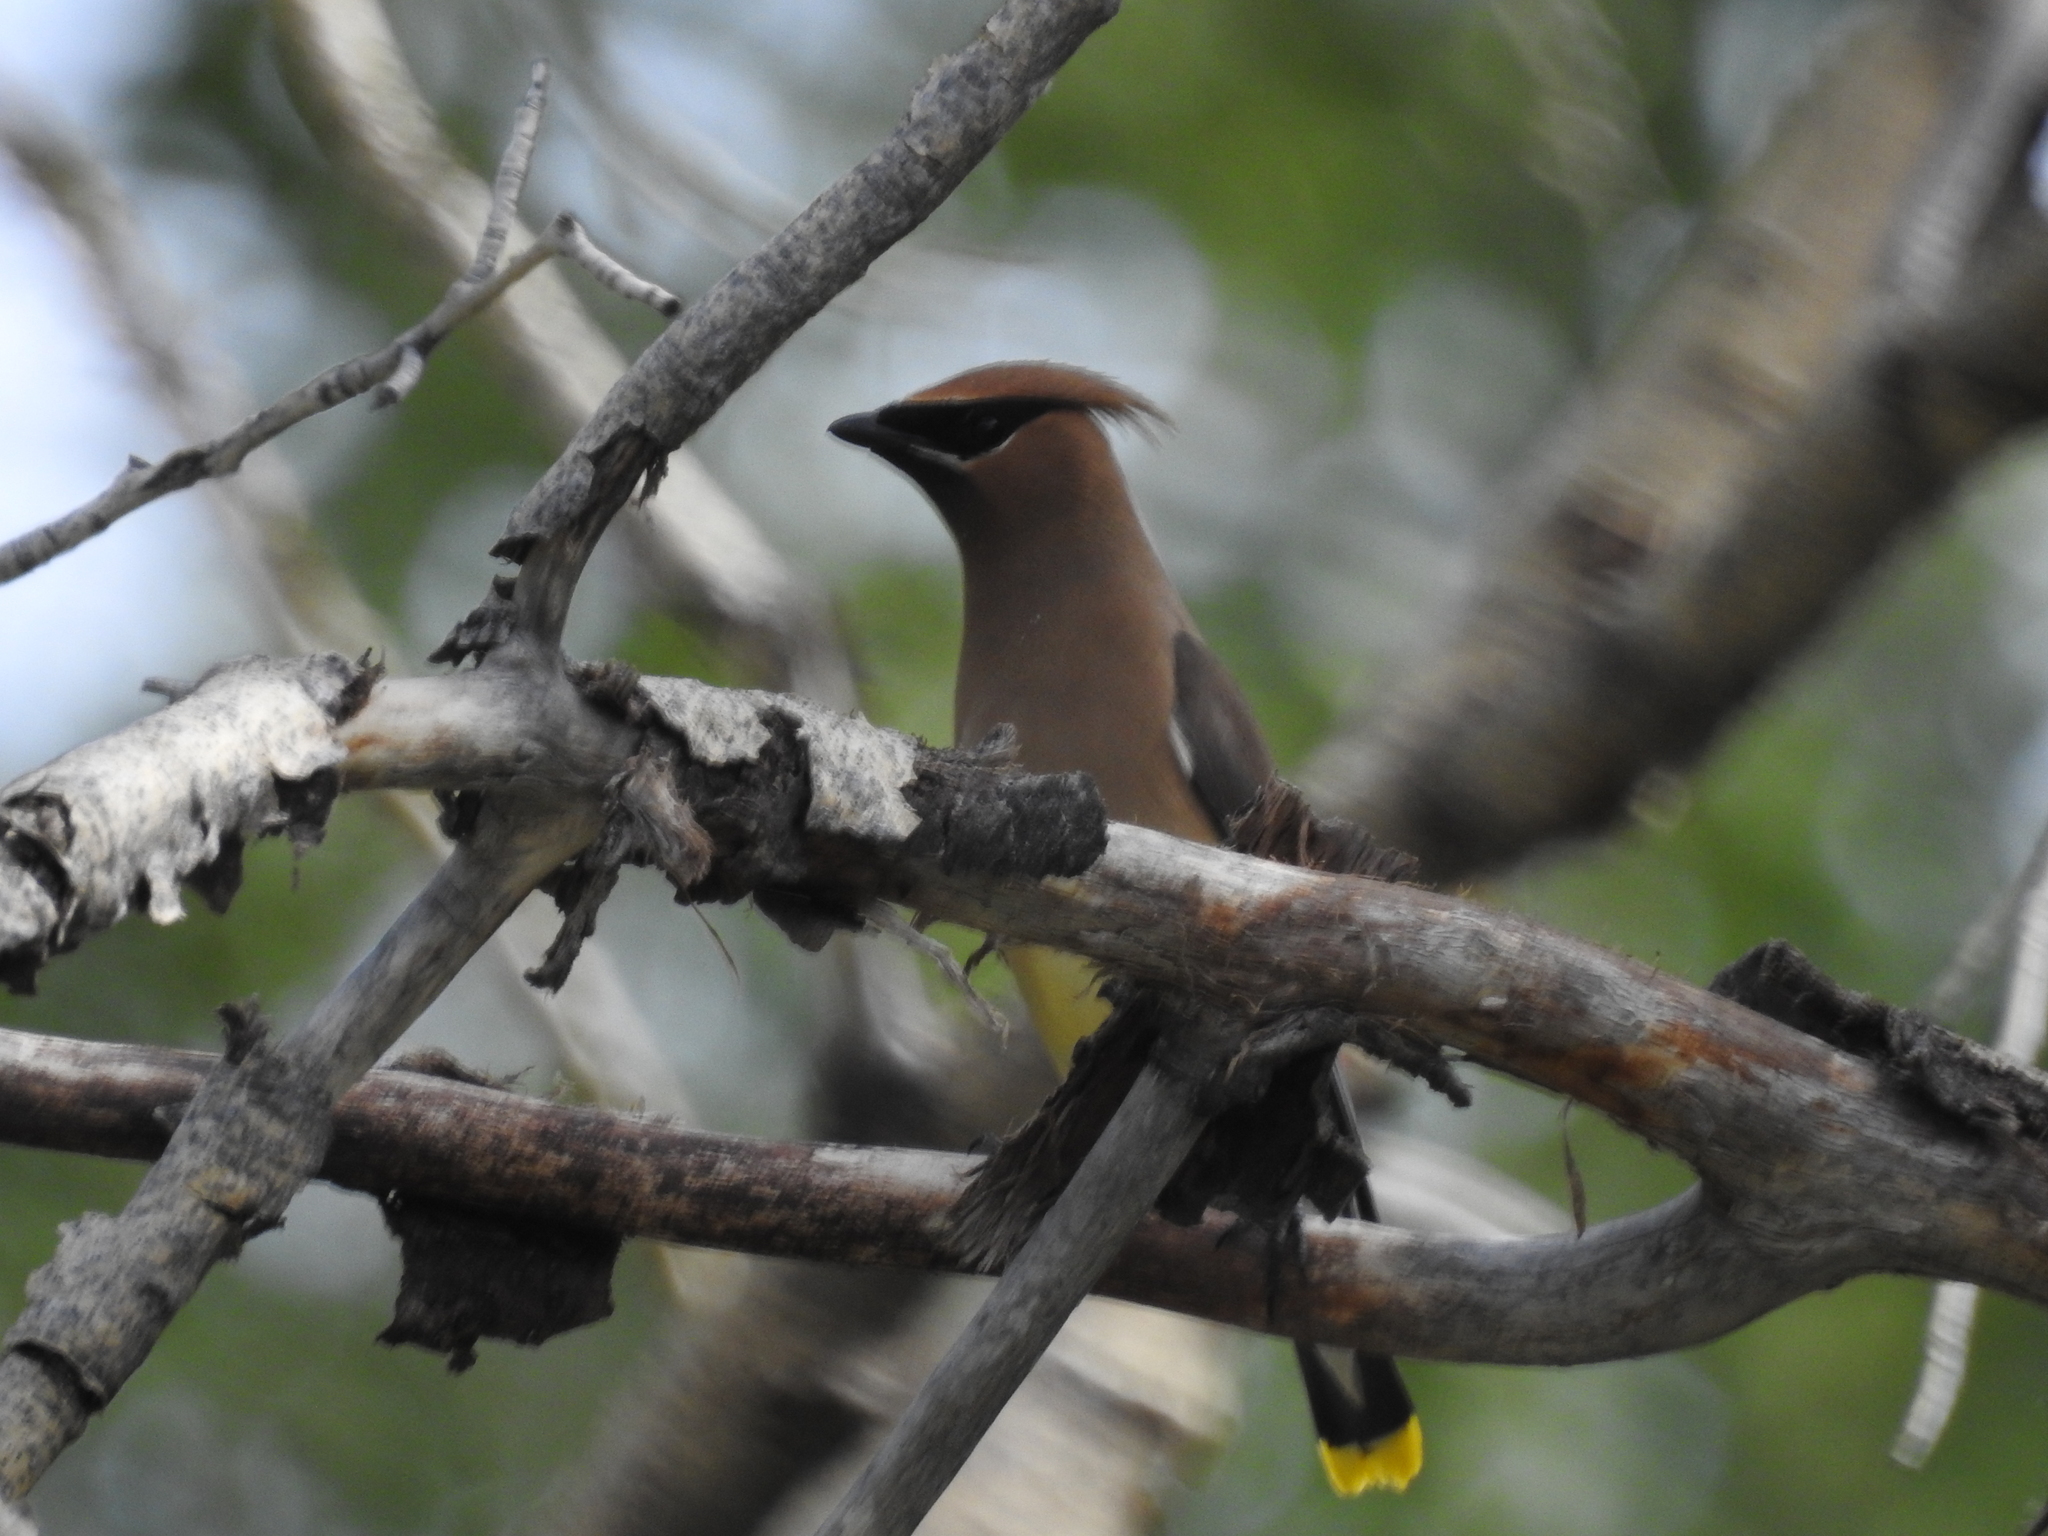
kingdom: Animalia
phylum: Chordata
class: Aves
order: Passeriformes
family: Bombycillidae
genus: Bombycilla
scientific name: Bombycilla cedrorum
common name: Cedar waxwing
